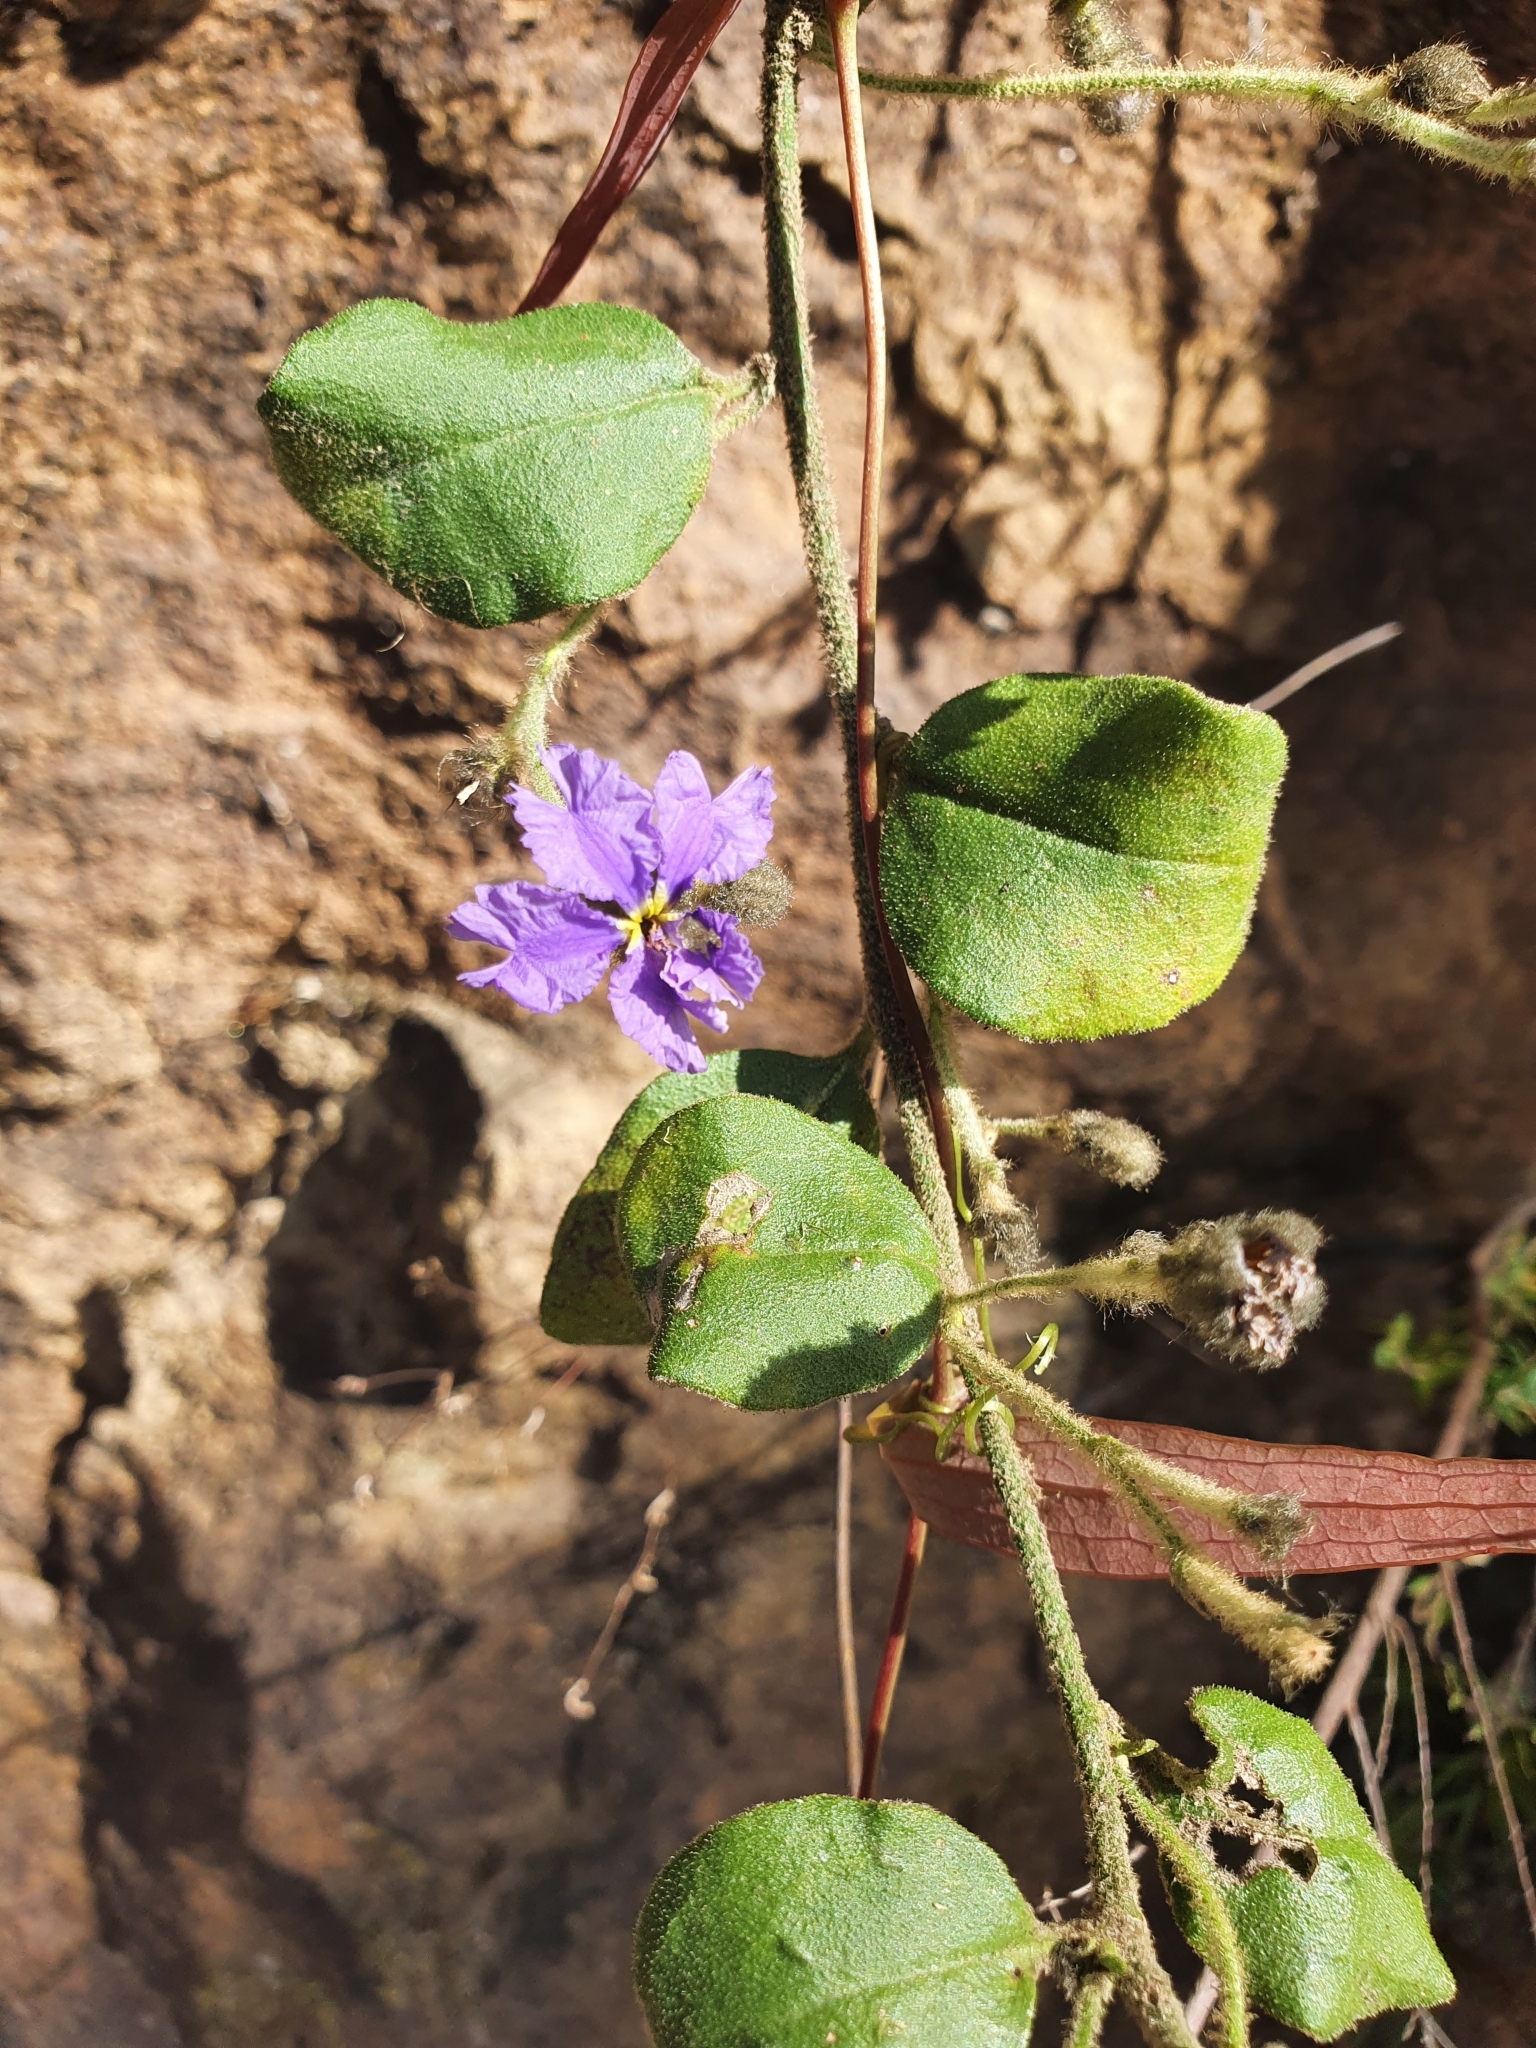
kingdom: Plantae
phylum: Tracheophyta
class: Magnoliopsida
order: Asterales
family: Goodeniaceae
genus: Dampiera
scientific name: Dampiera purpurea
